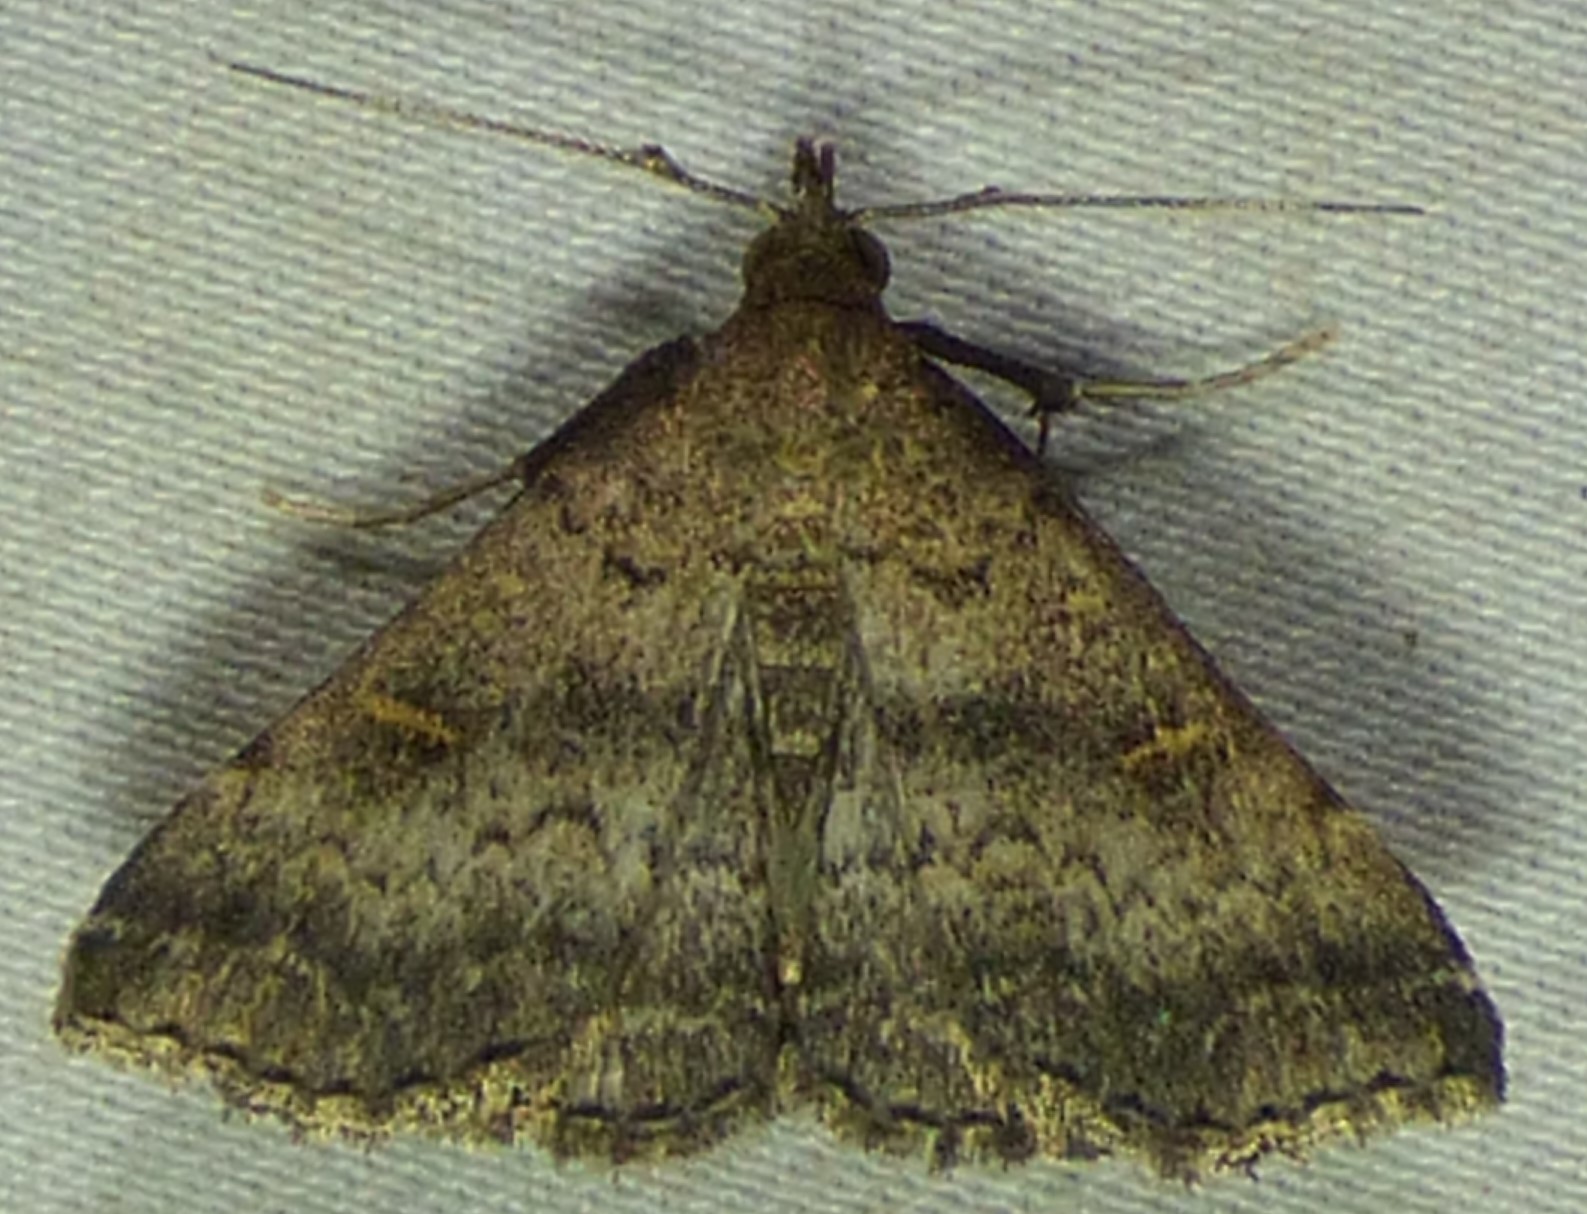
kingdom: Animalia
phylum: Arthropoda
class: Insecta
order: Lepidoptera
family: Erebidae
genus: Tetanolita
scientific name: Tetanolita floridana
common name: Florida tetanolita moth
